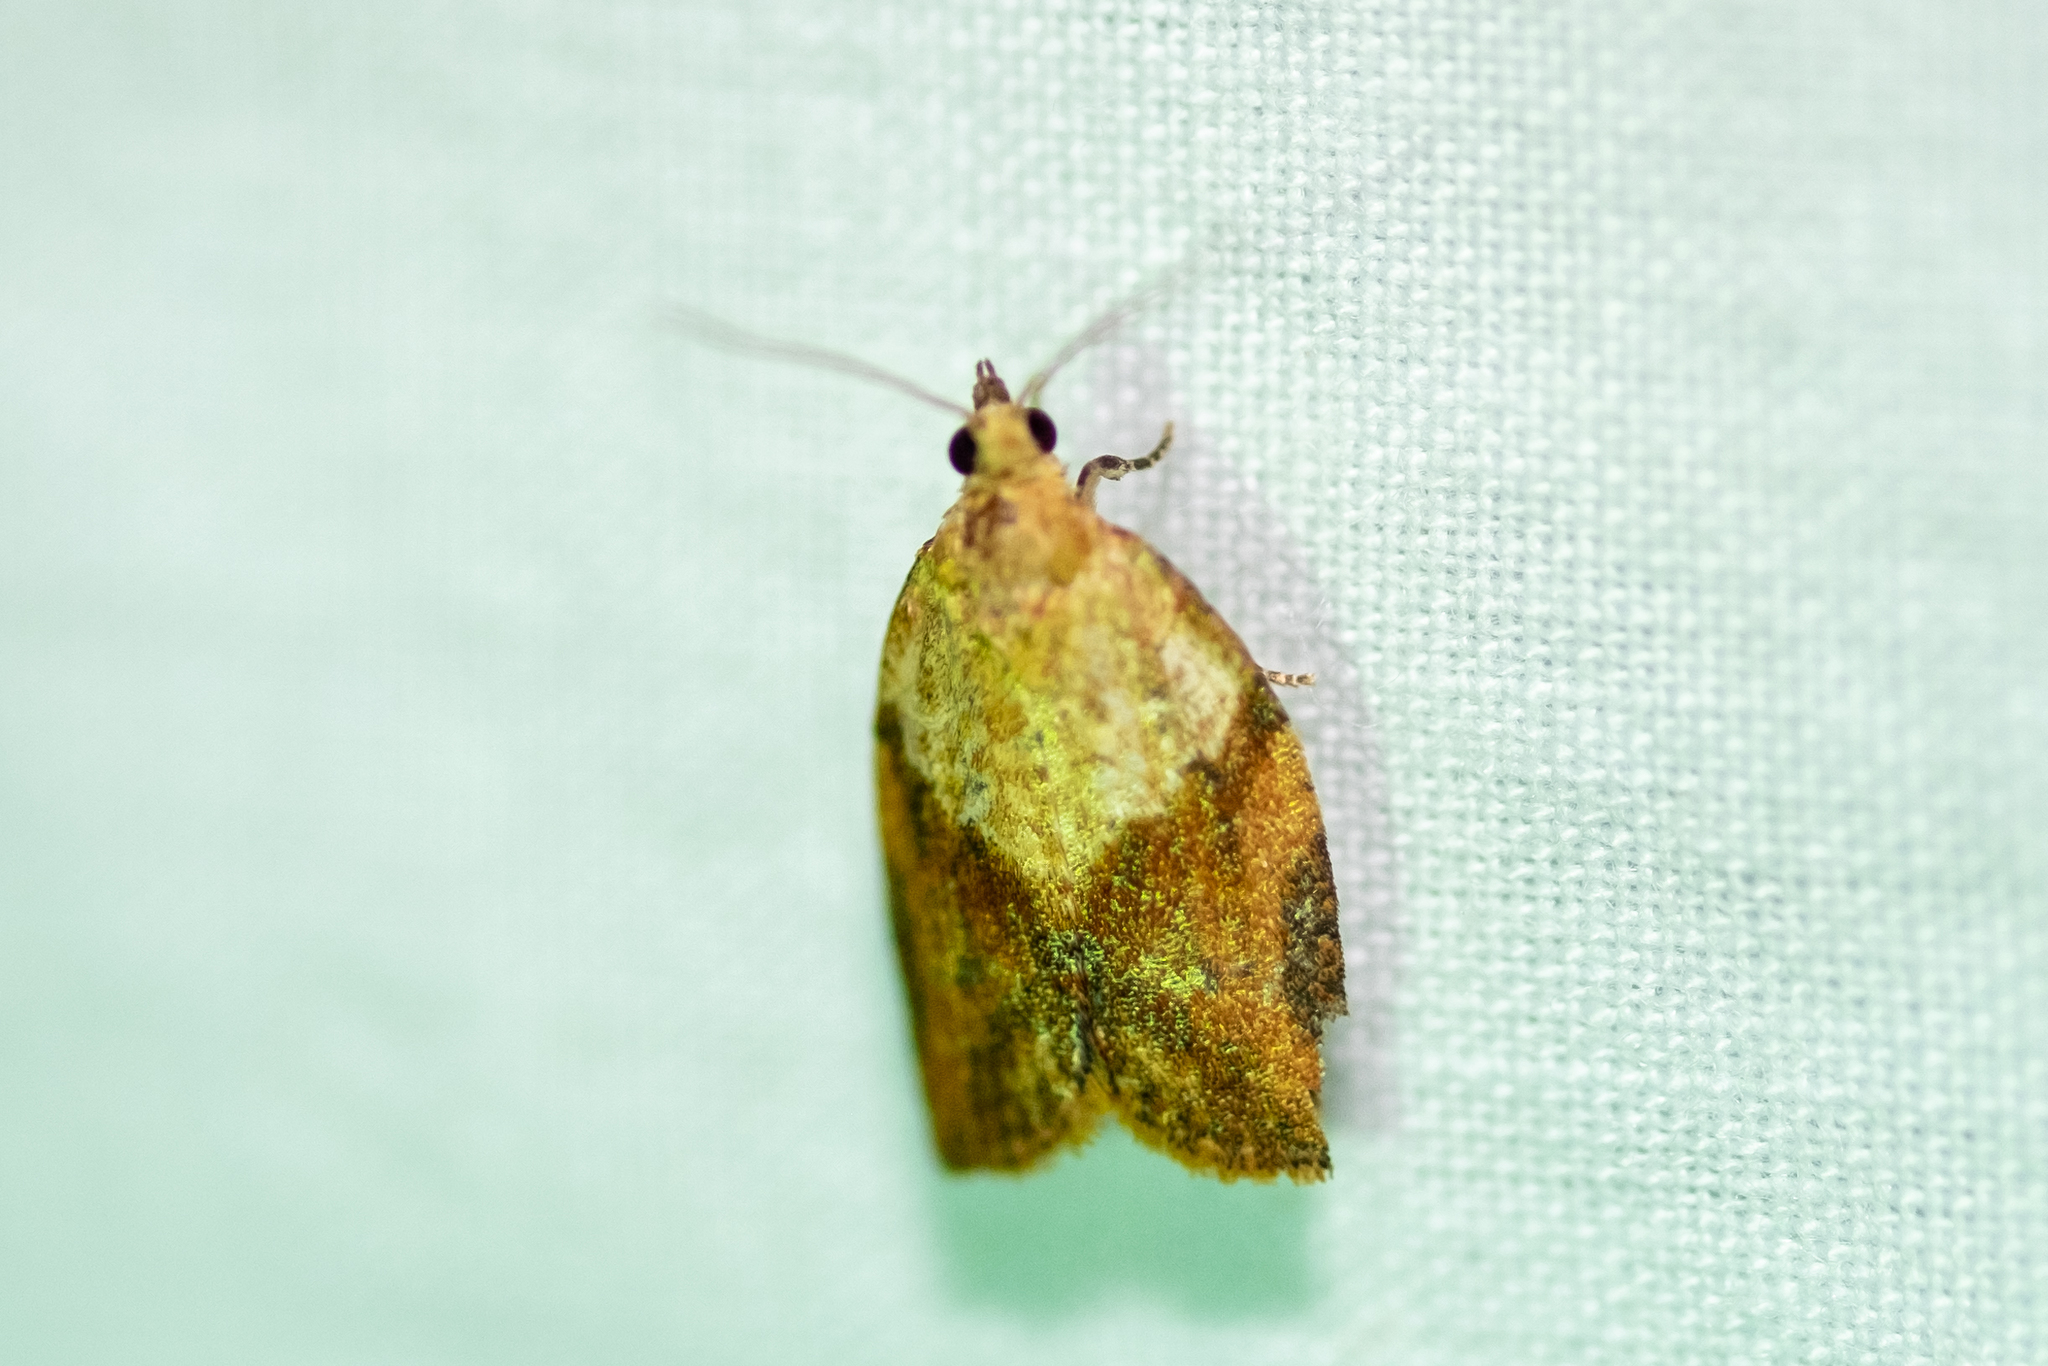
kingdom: Animalia
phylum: Arthropoda
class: Insecta
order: Lepidoptera
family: Tortricidae
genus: Epiphyas
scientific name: Epiphyas postvittana
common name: Light brown apple moth
